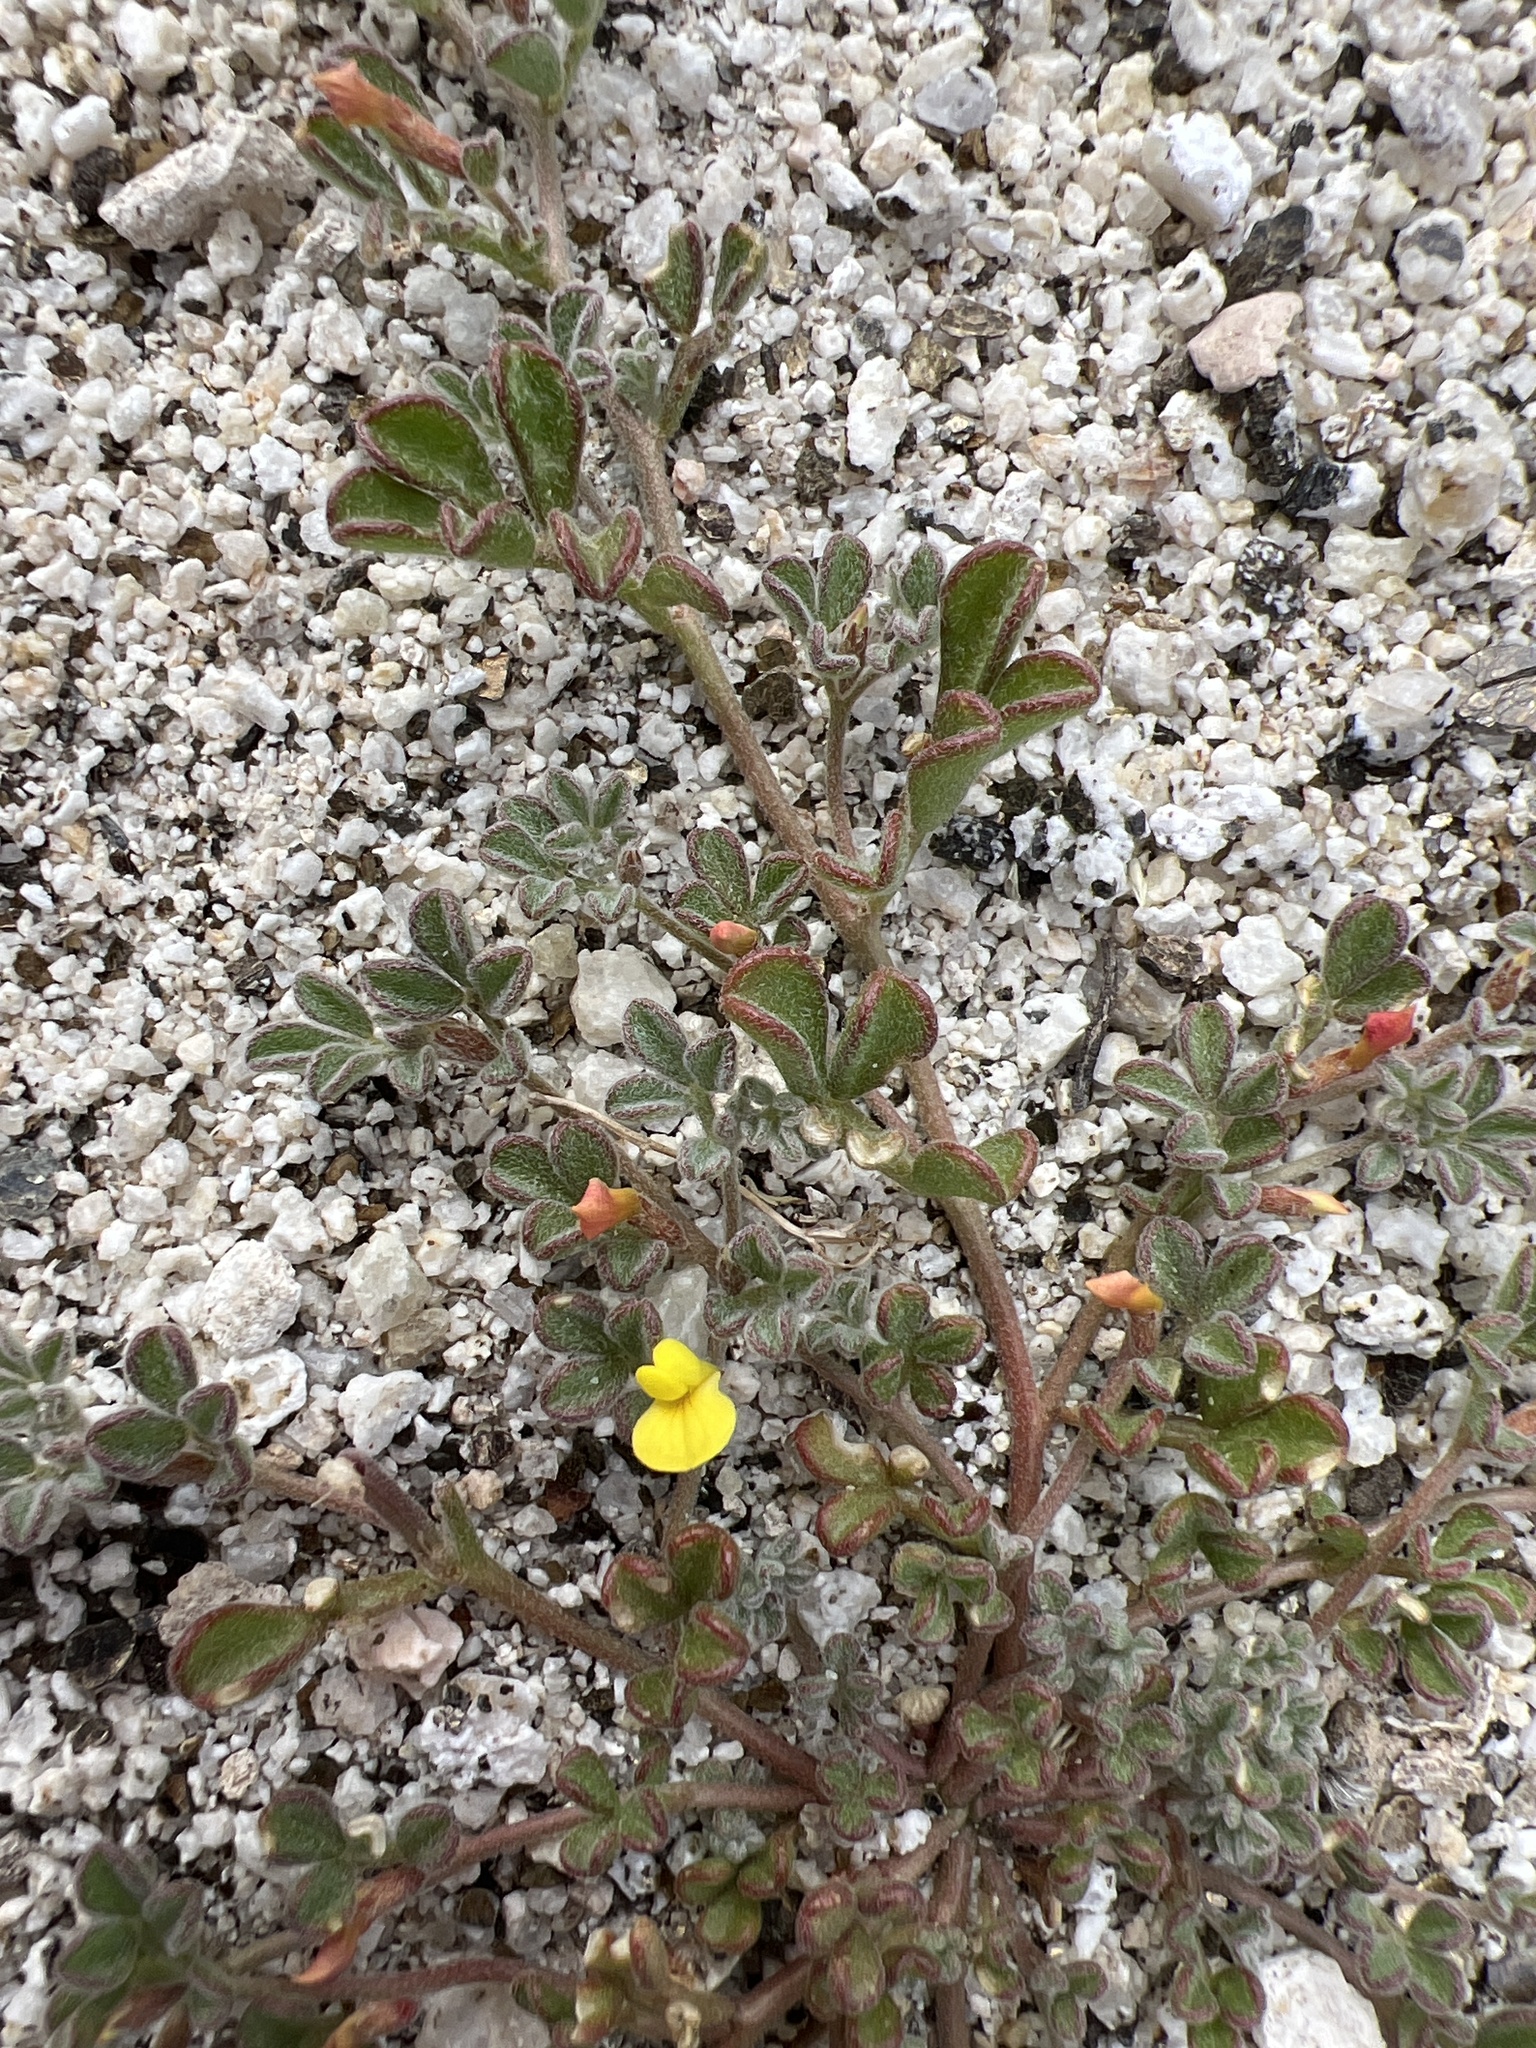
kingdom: Plantae
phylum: Tracheophyta
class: Magnoliopsida
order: Fabales
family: Fabaceae
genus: Acmispon
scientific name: Acmispon strigosus
